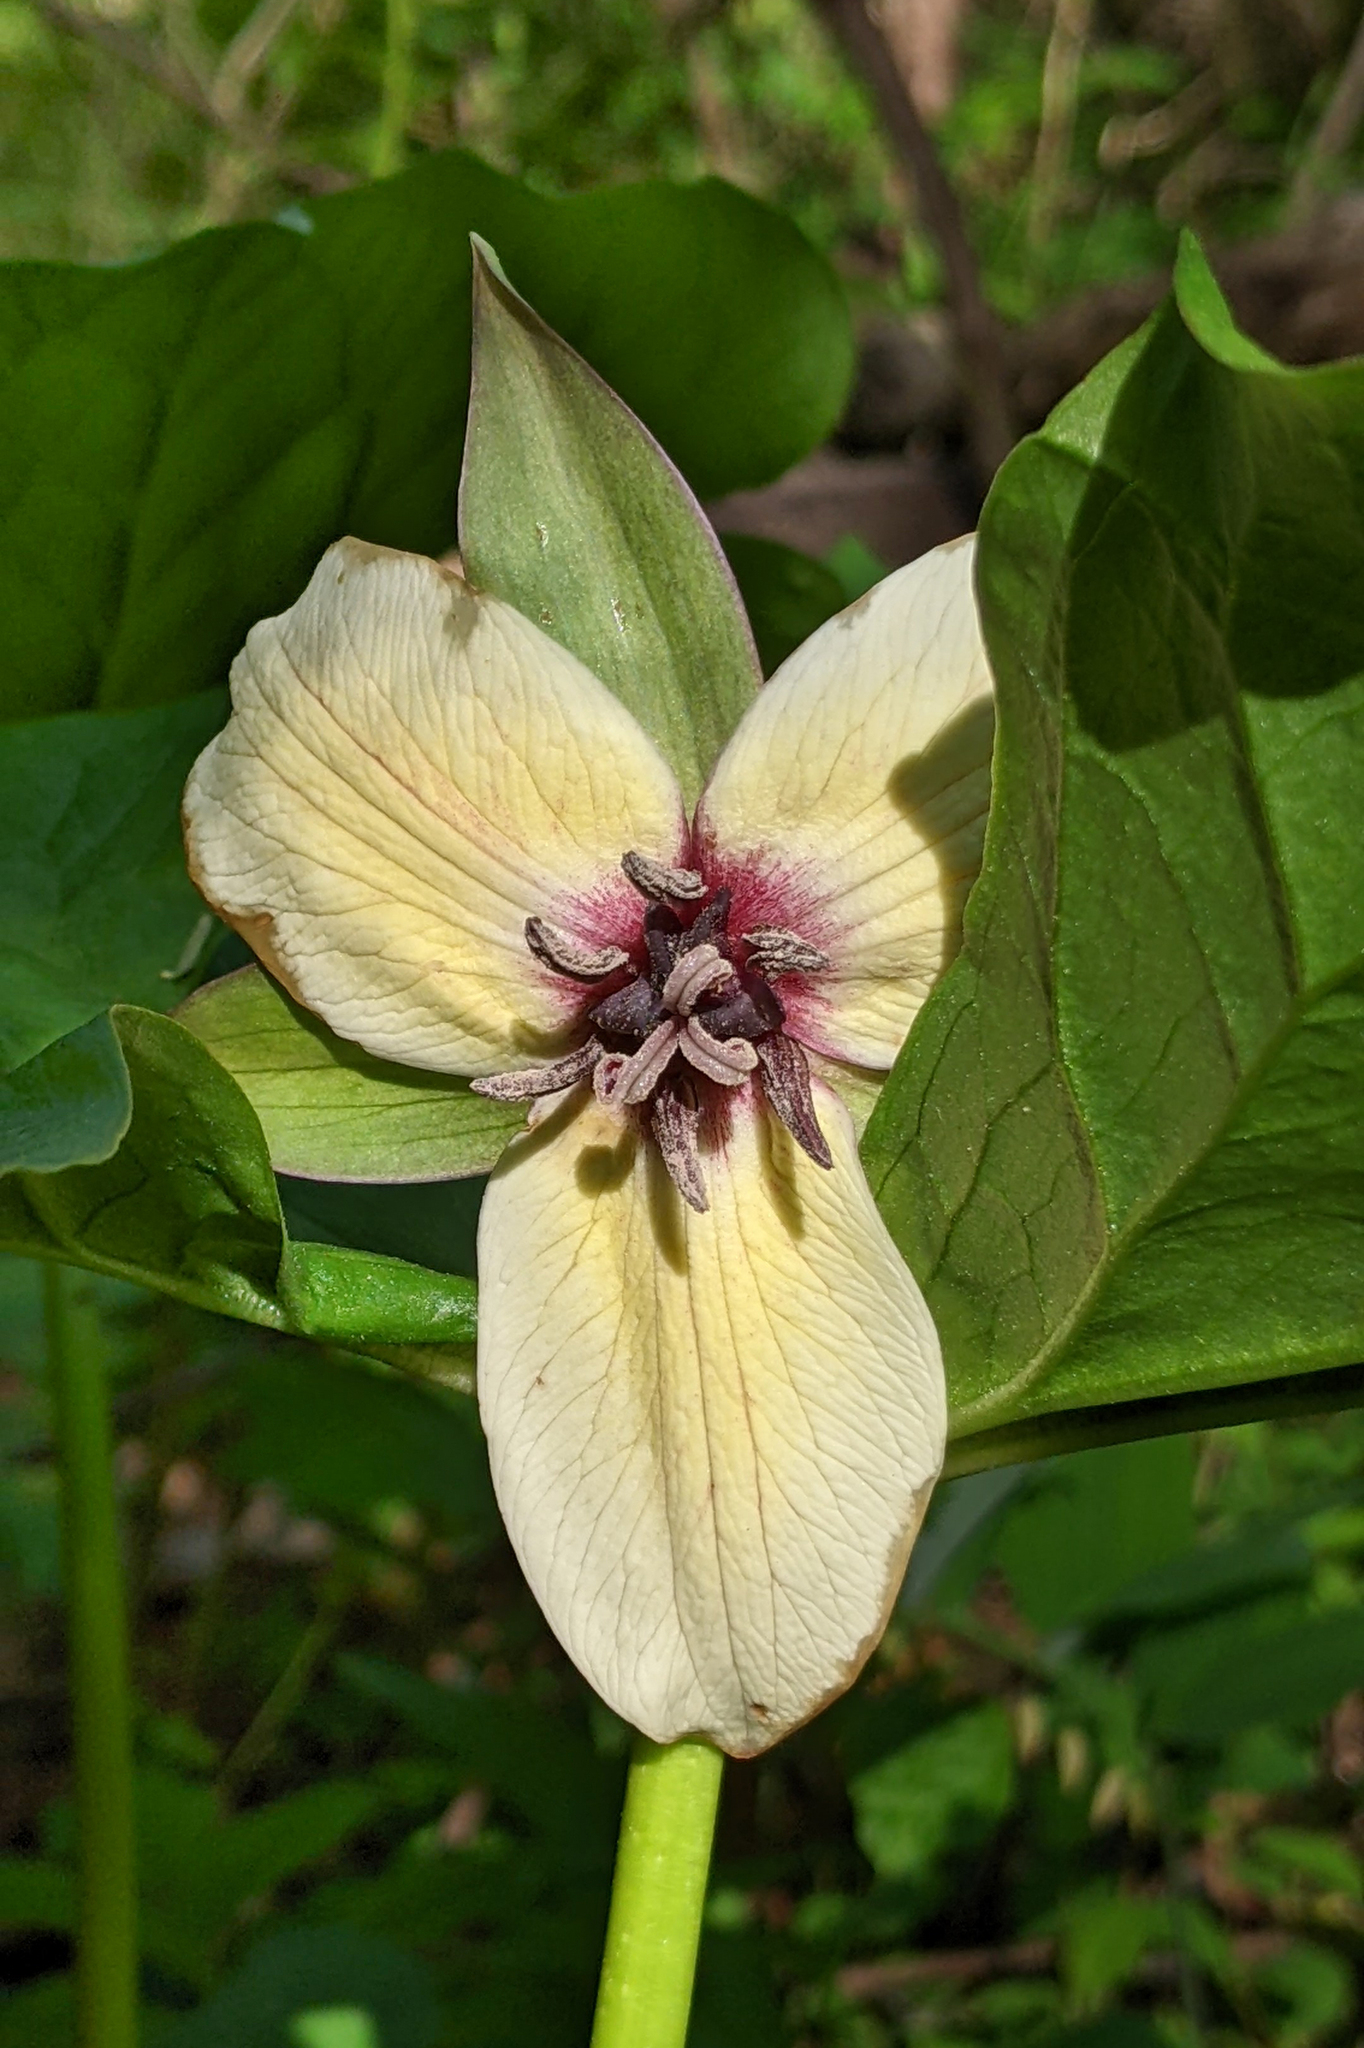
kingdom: Plantae
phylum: Tracheophyta
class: Liliopsida
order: Liliales
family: Melanthiaceae
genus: Trillium
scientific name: Trillium rugelii
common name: Ill-scented trillium
